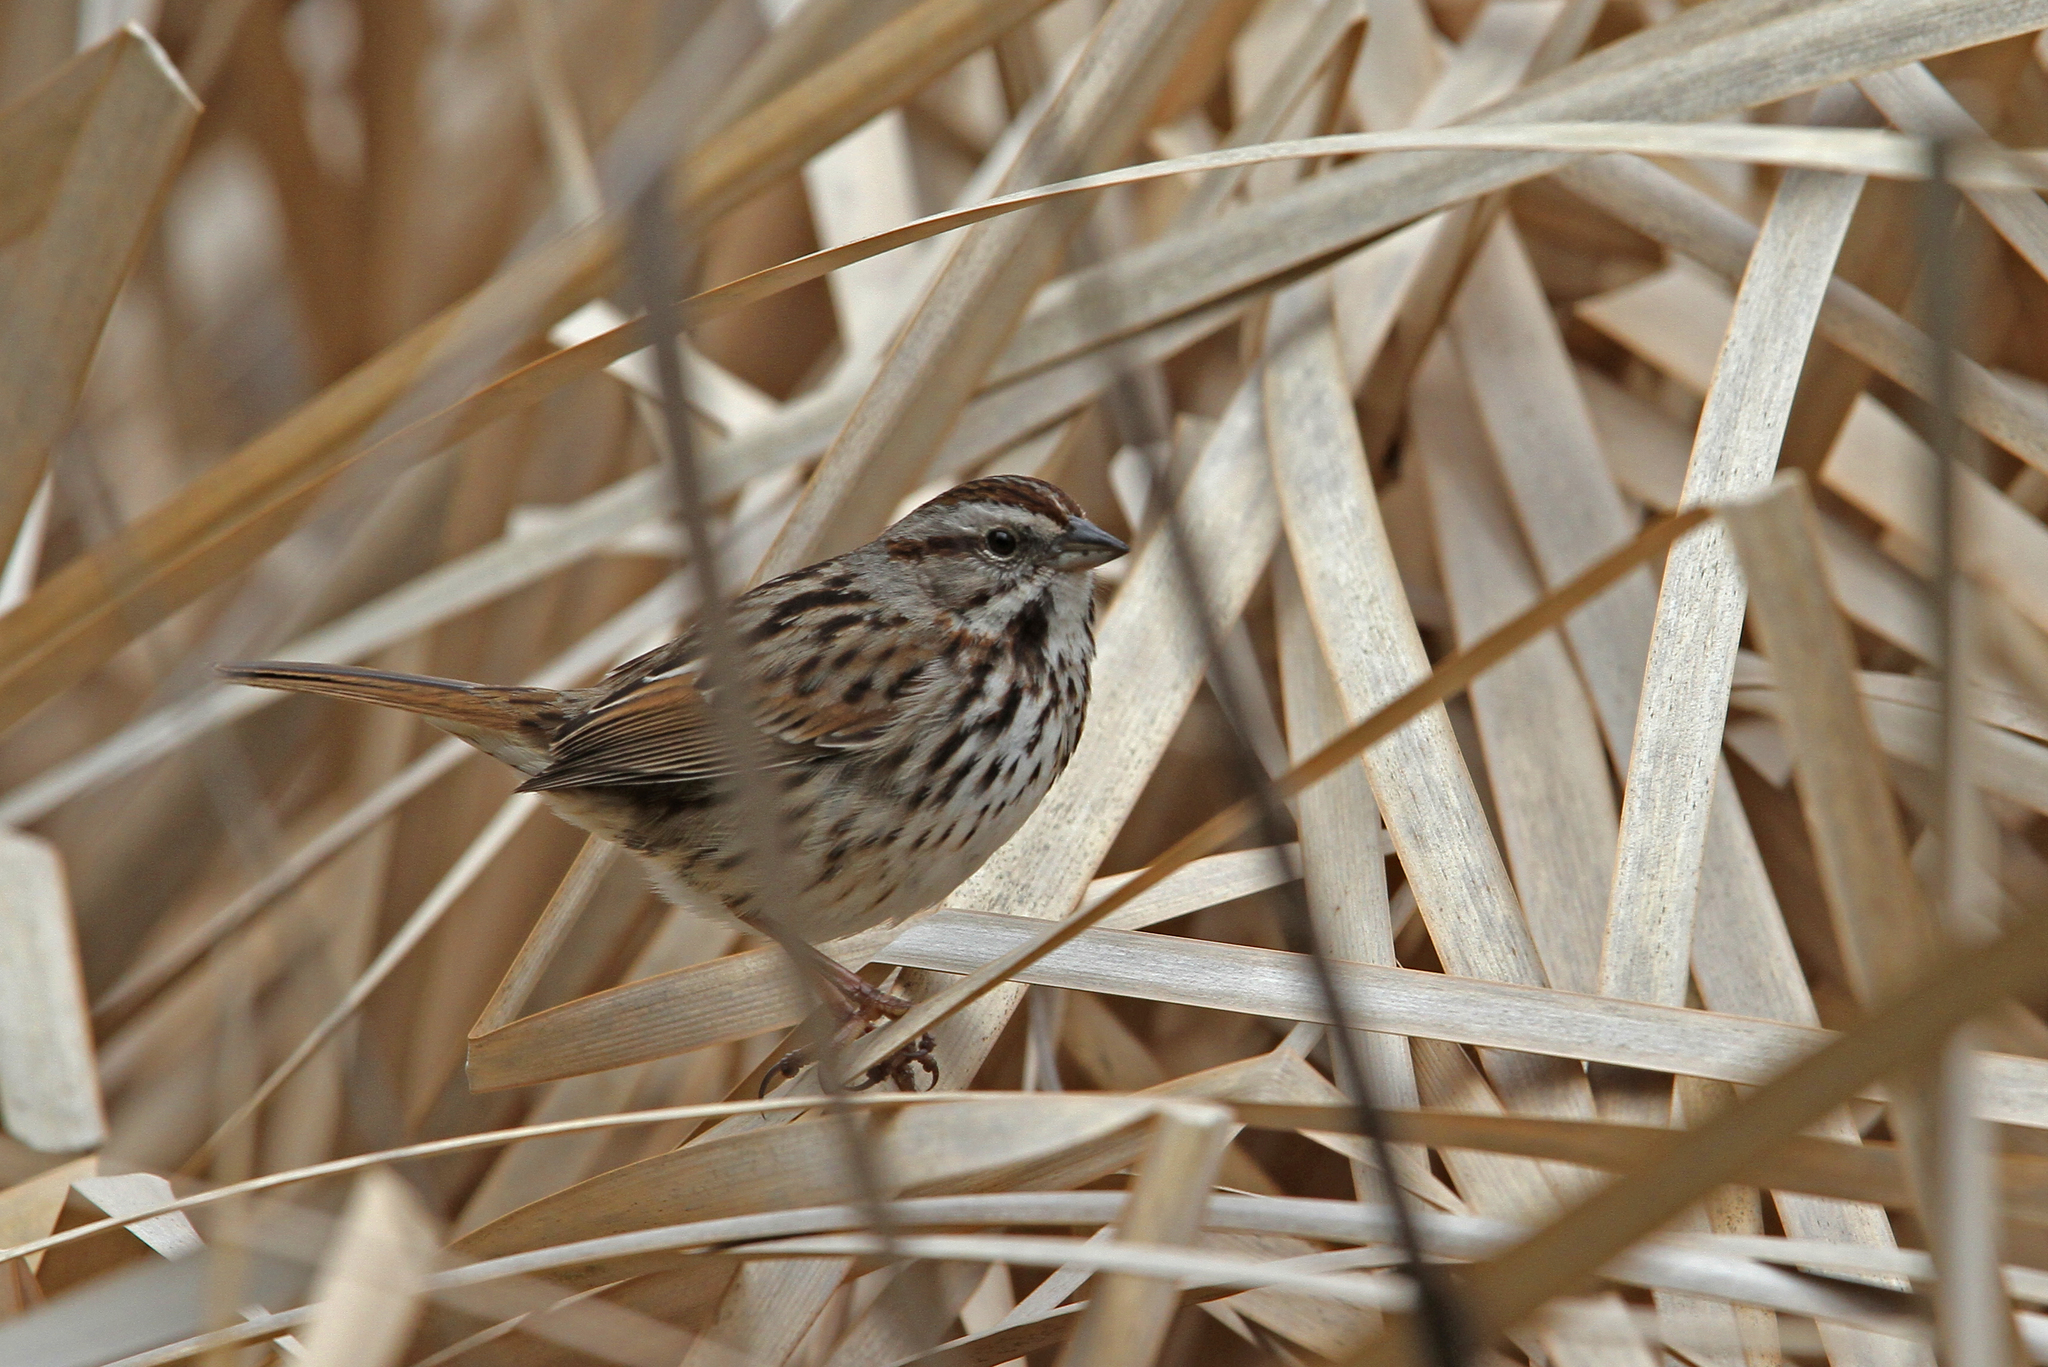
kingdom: Animalia
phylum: Chordata
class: Aves
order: Passeriformes
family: Passerellidae
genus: Melospiza
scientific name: Melospiza melodia
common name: Song sparrow
